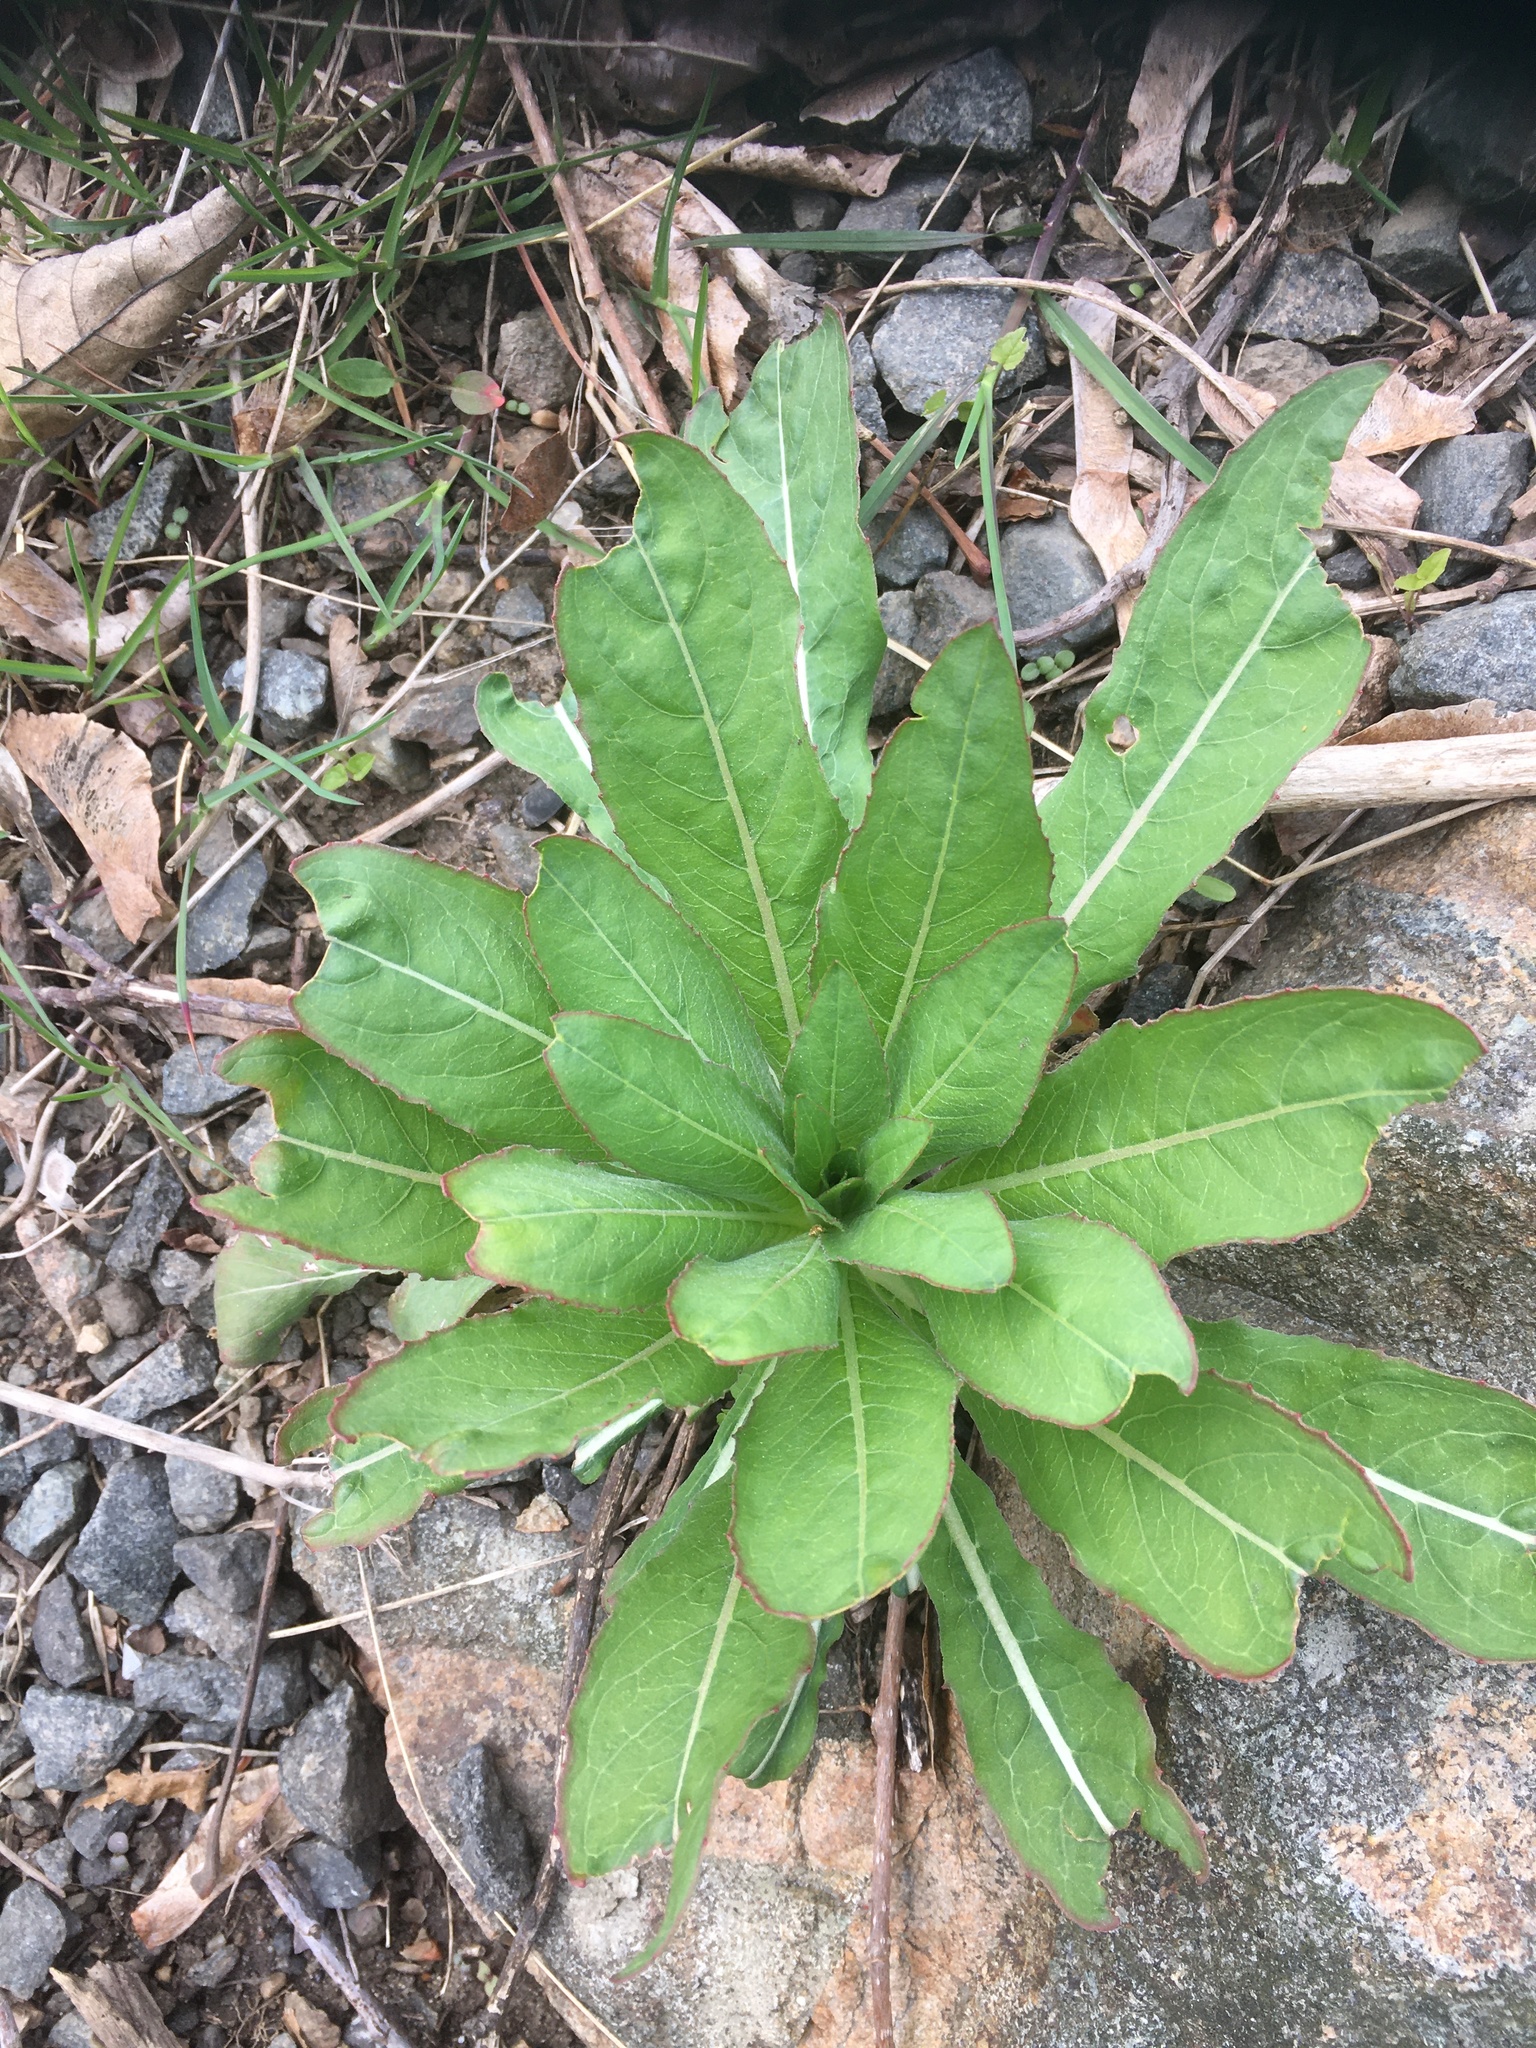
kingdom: Plantae
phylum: Tracheophyta
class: Magnoliopsida
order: Myrtales
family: Onagraceae
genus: Oenothera
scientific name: Oenothera biennis
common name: Common evening-primrose
